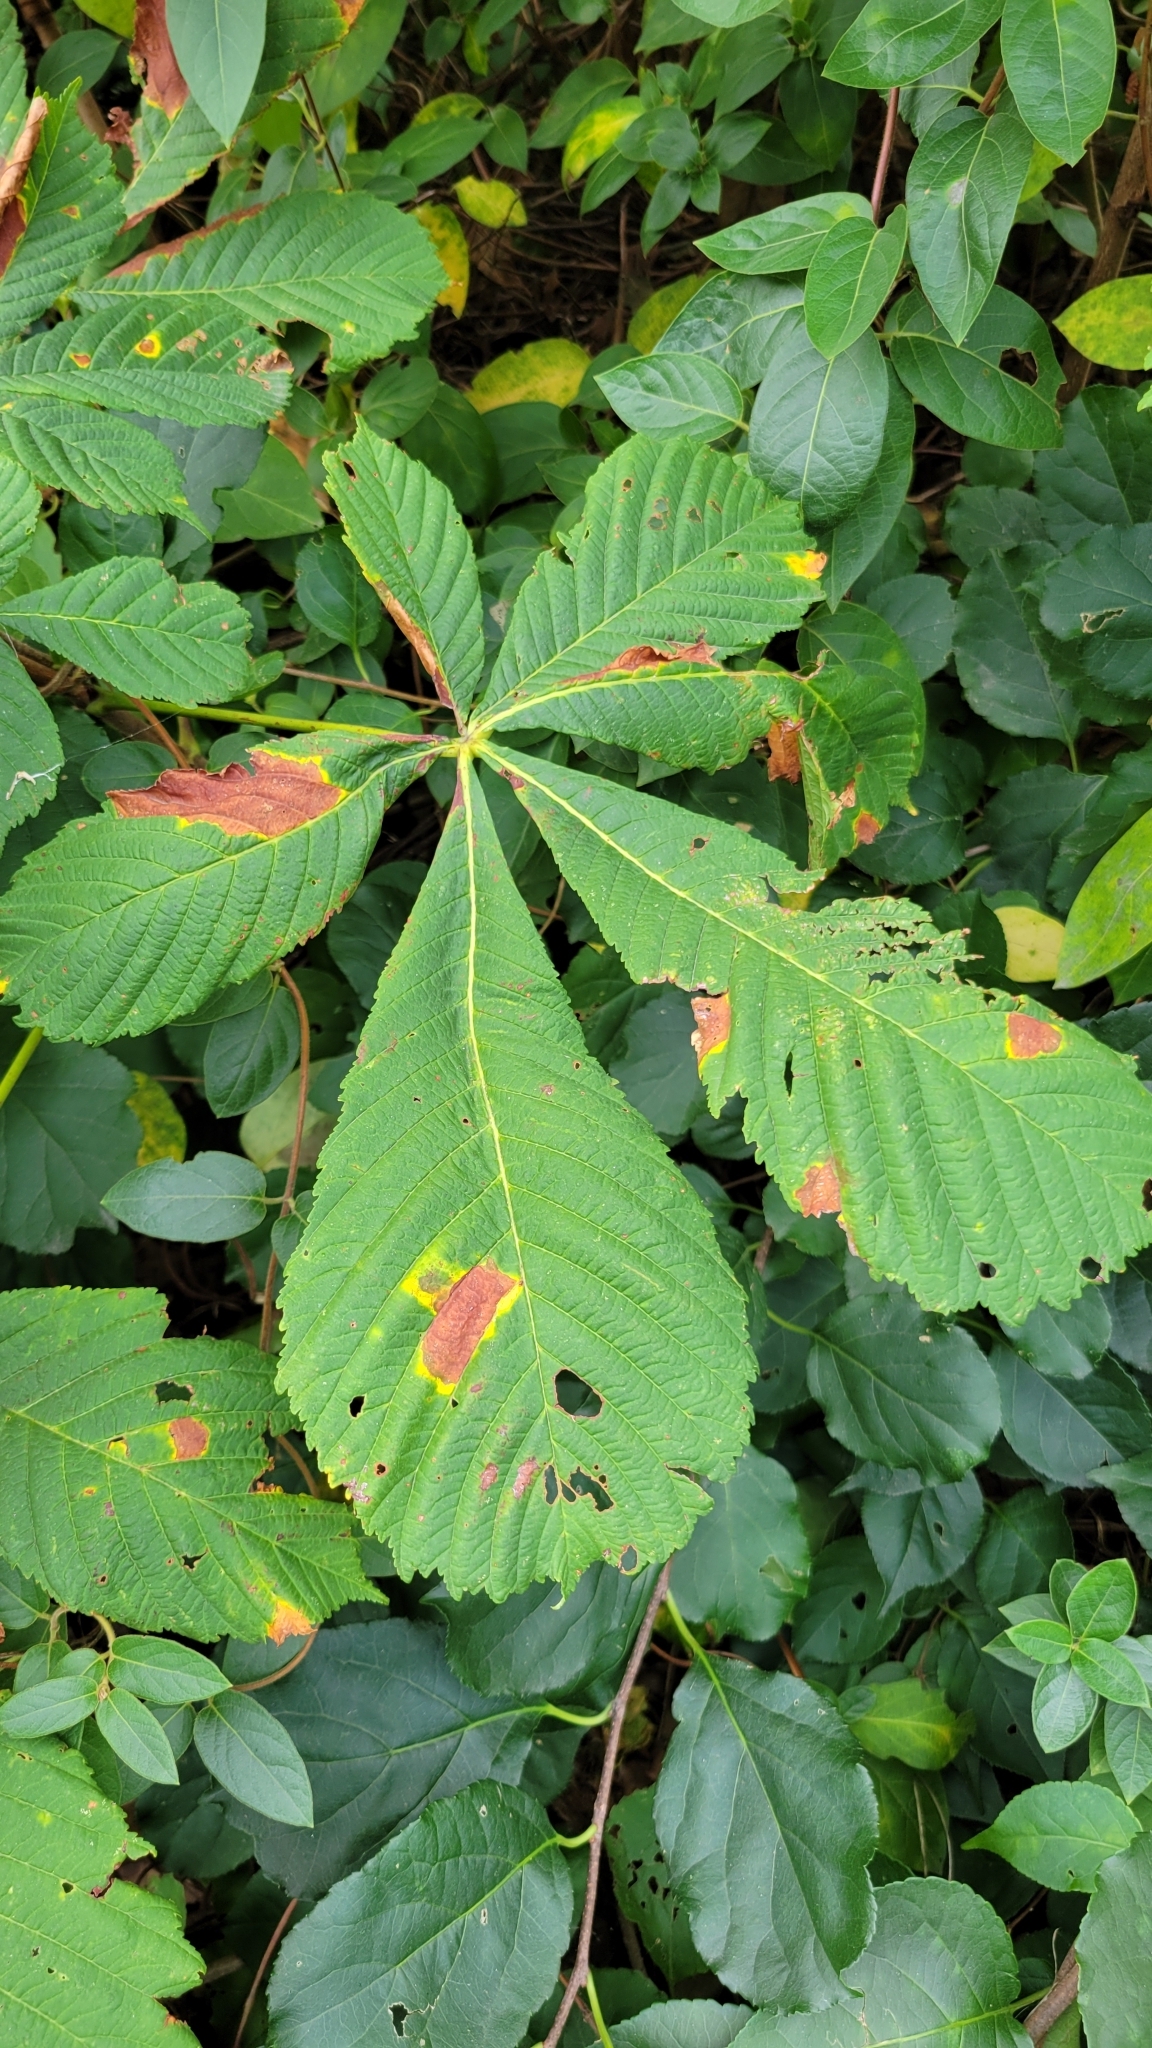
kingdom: Plantae
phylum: Tracheophyta
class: Magnoliopsida
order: Sapindales
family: Sapindaceae
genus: Aesculus
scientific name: Aesculus hippocastanum
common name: Horse-chestnut
